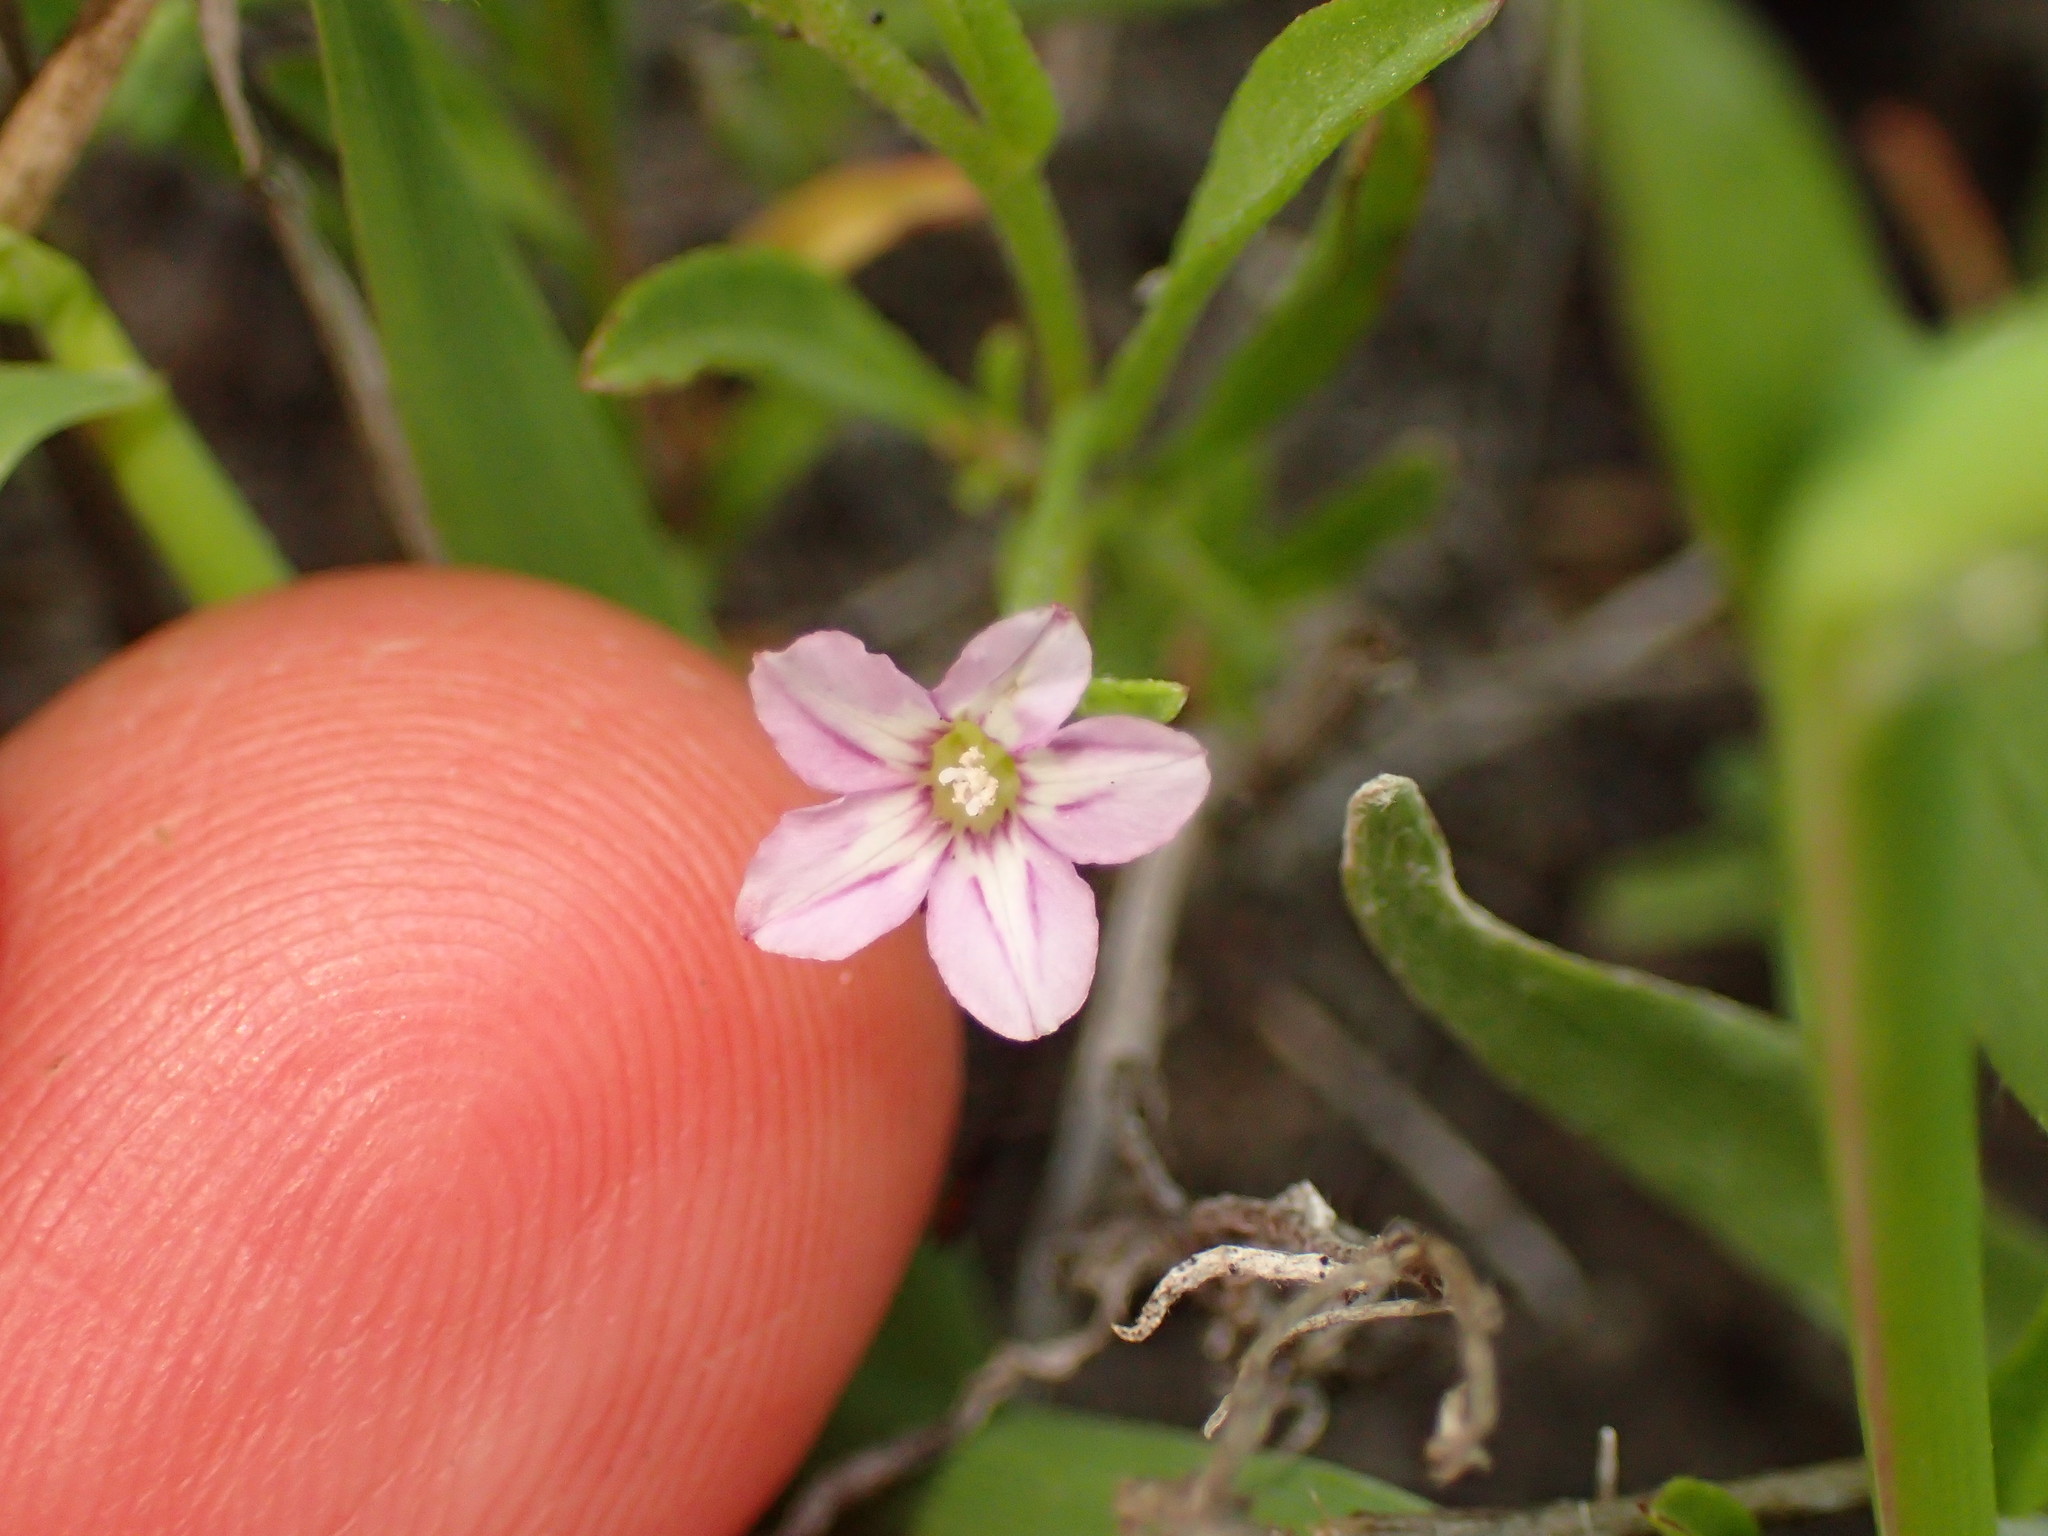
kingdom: Plantae
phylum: Tracheophyta
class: Magnoliopsida
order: Ranunculales
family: Papaveraceae
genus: Eschscholzia
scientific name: Eschscholzia californica
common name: California poppy
